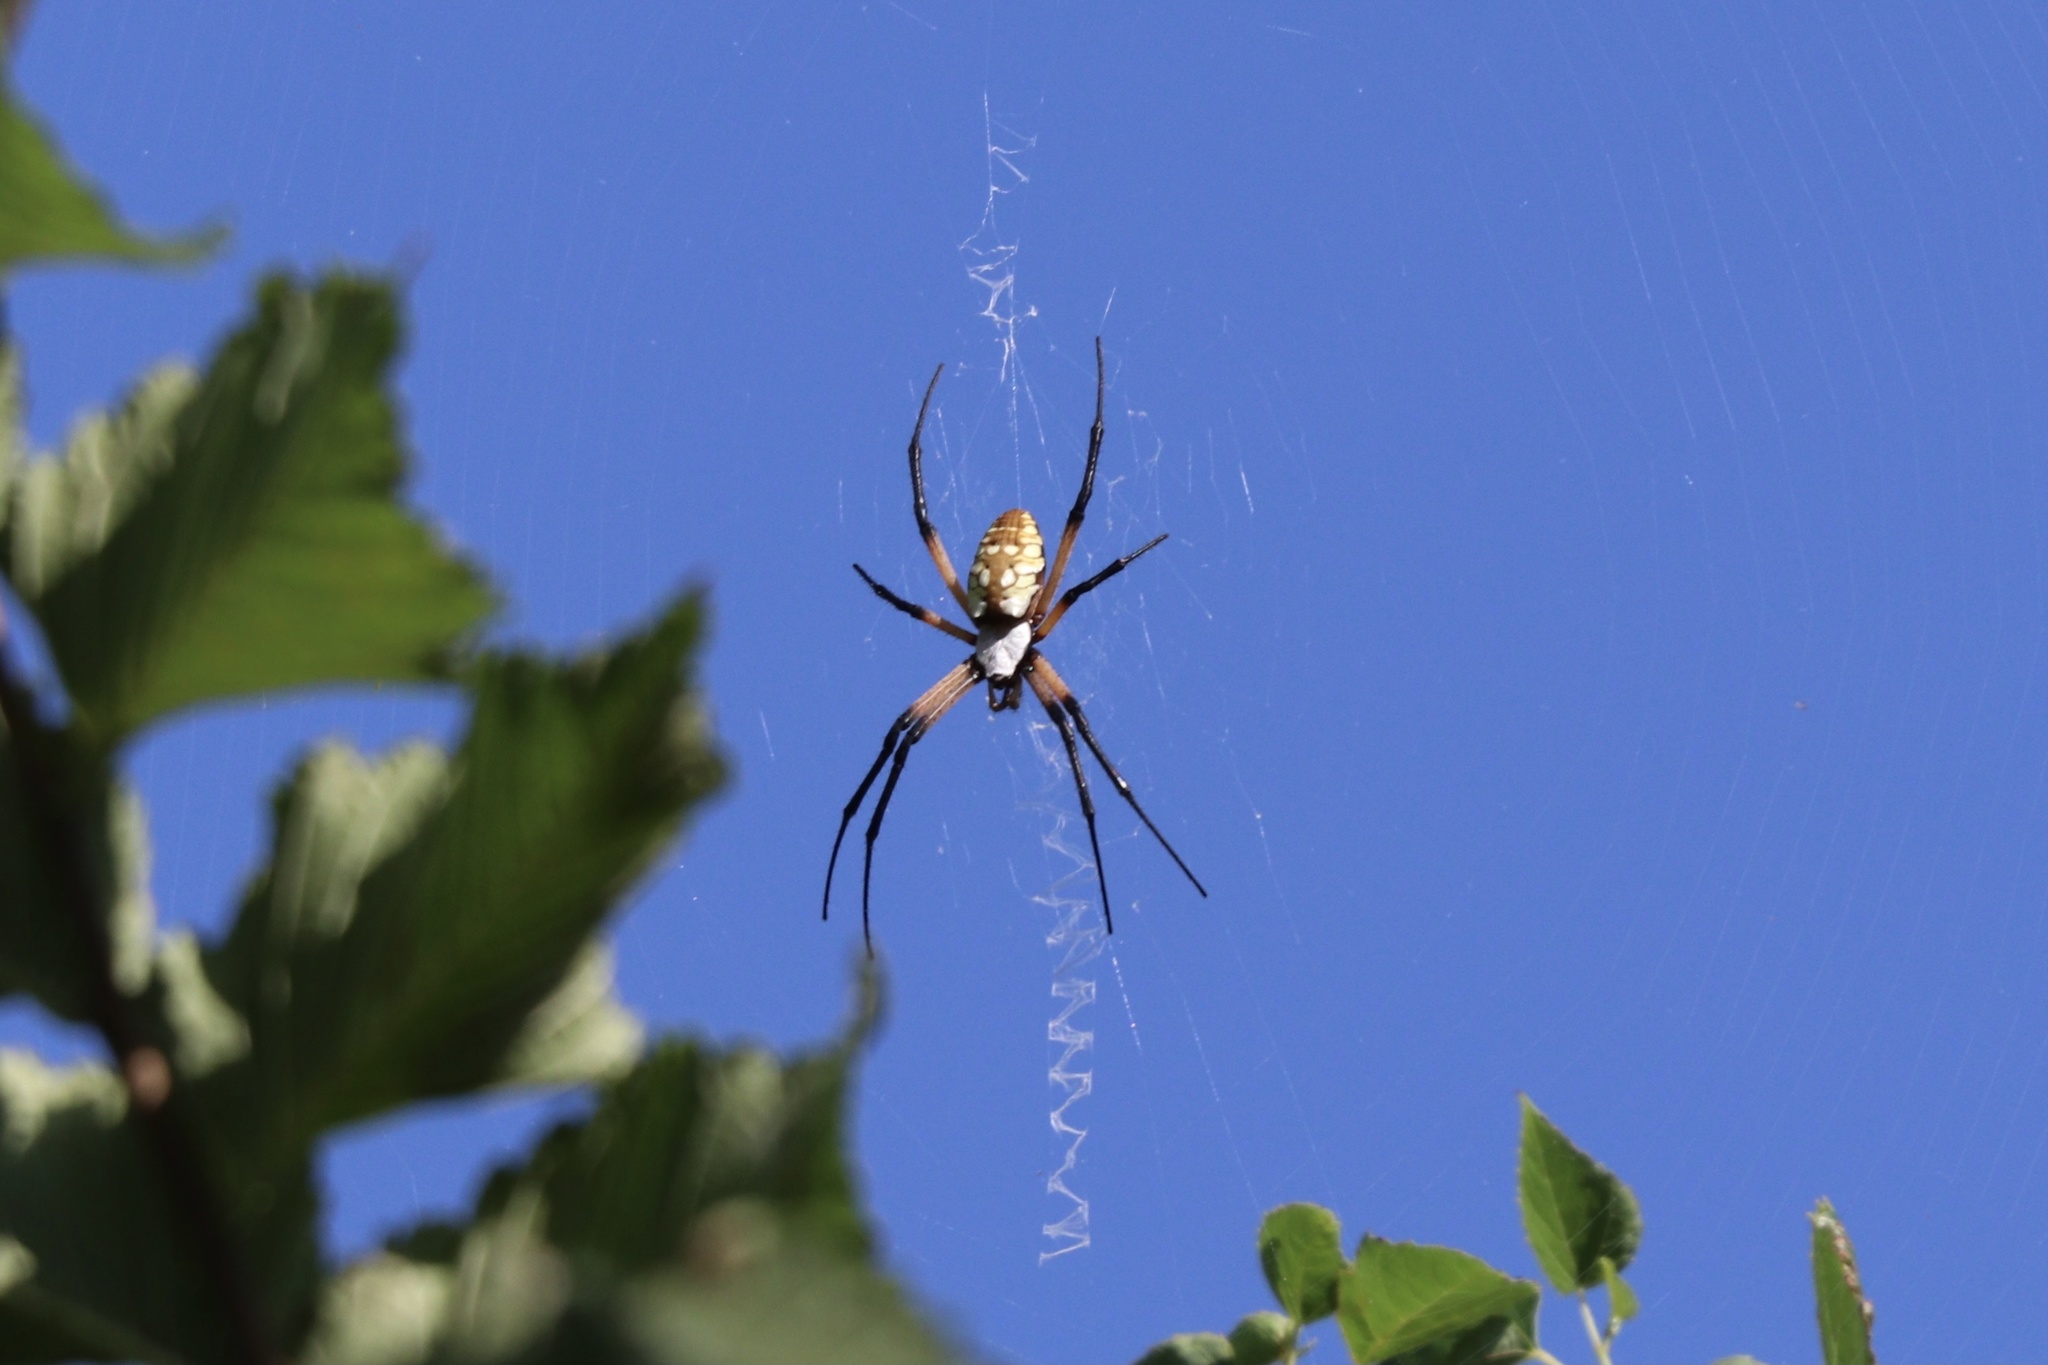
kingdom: Animalia
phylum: Arthropoda
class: Arachnida
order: Araneae
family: Araneidae
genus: Argiope
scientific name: Argiope aurantia
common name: Orb weavers
